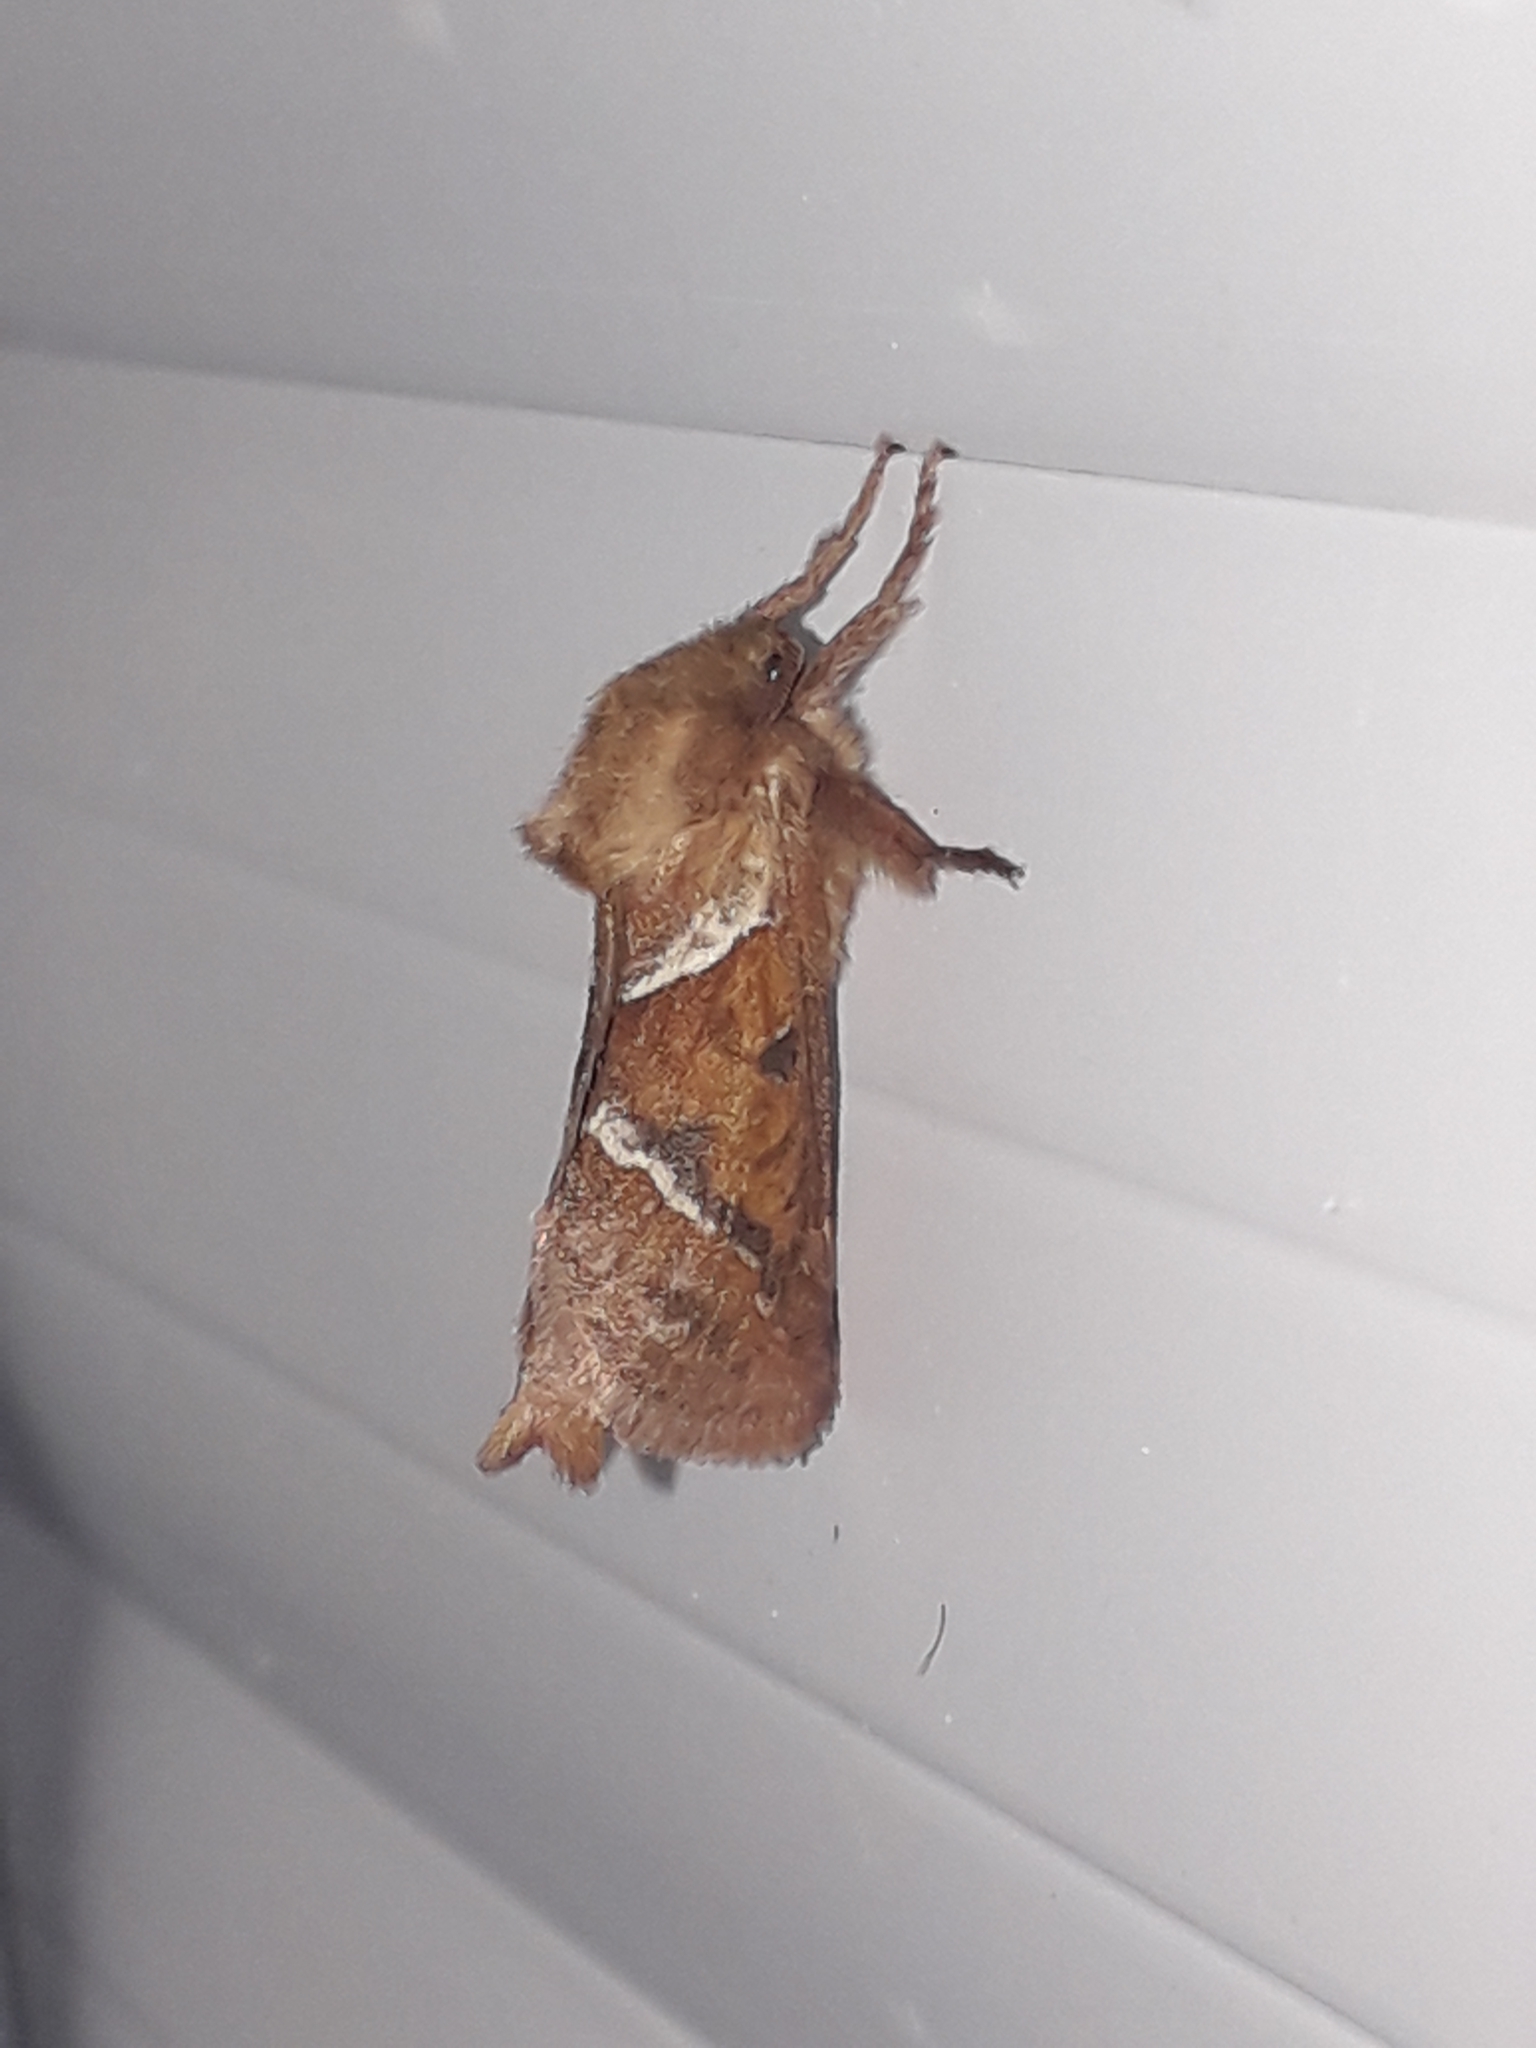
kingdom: Animalia
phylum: Arthropoda
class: Insecta
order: Lepidoptera
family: Hepialidae
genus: Triodia
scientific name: Triodia sylvina
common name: Orange swift
